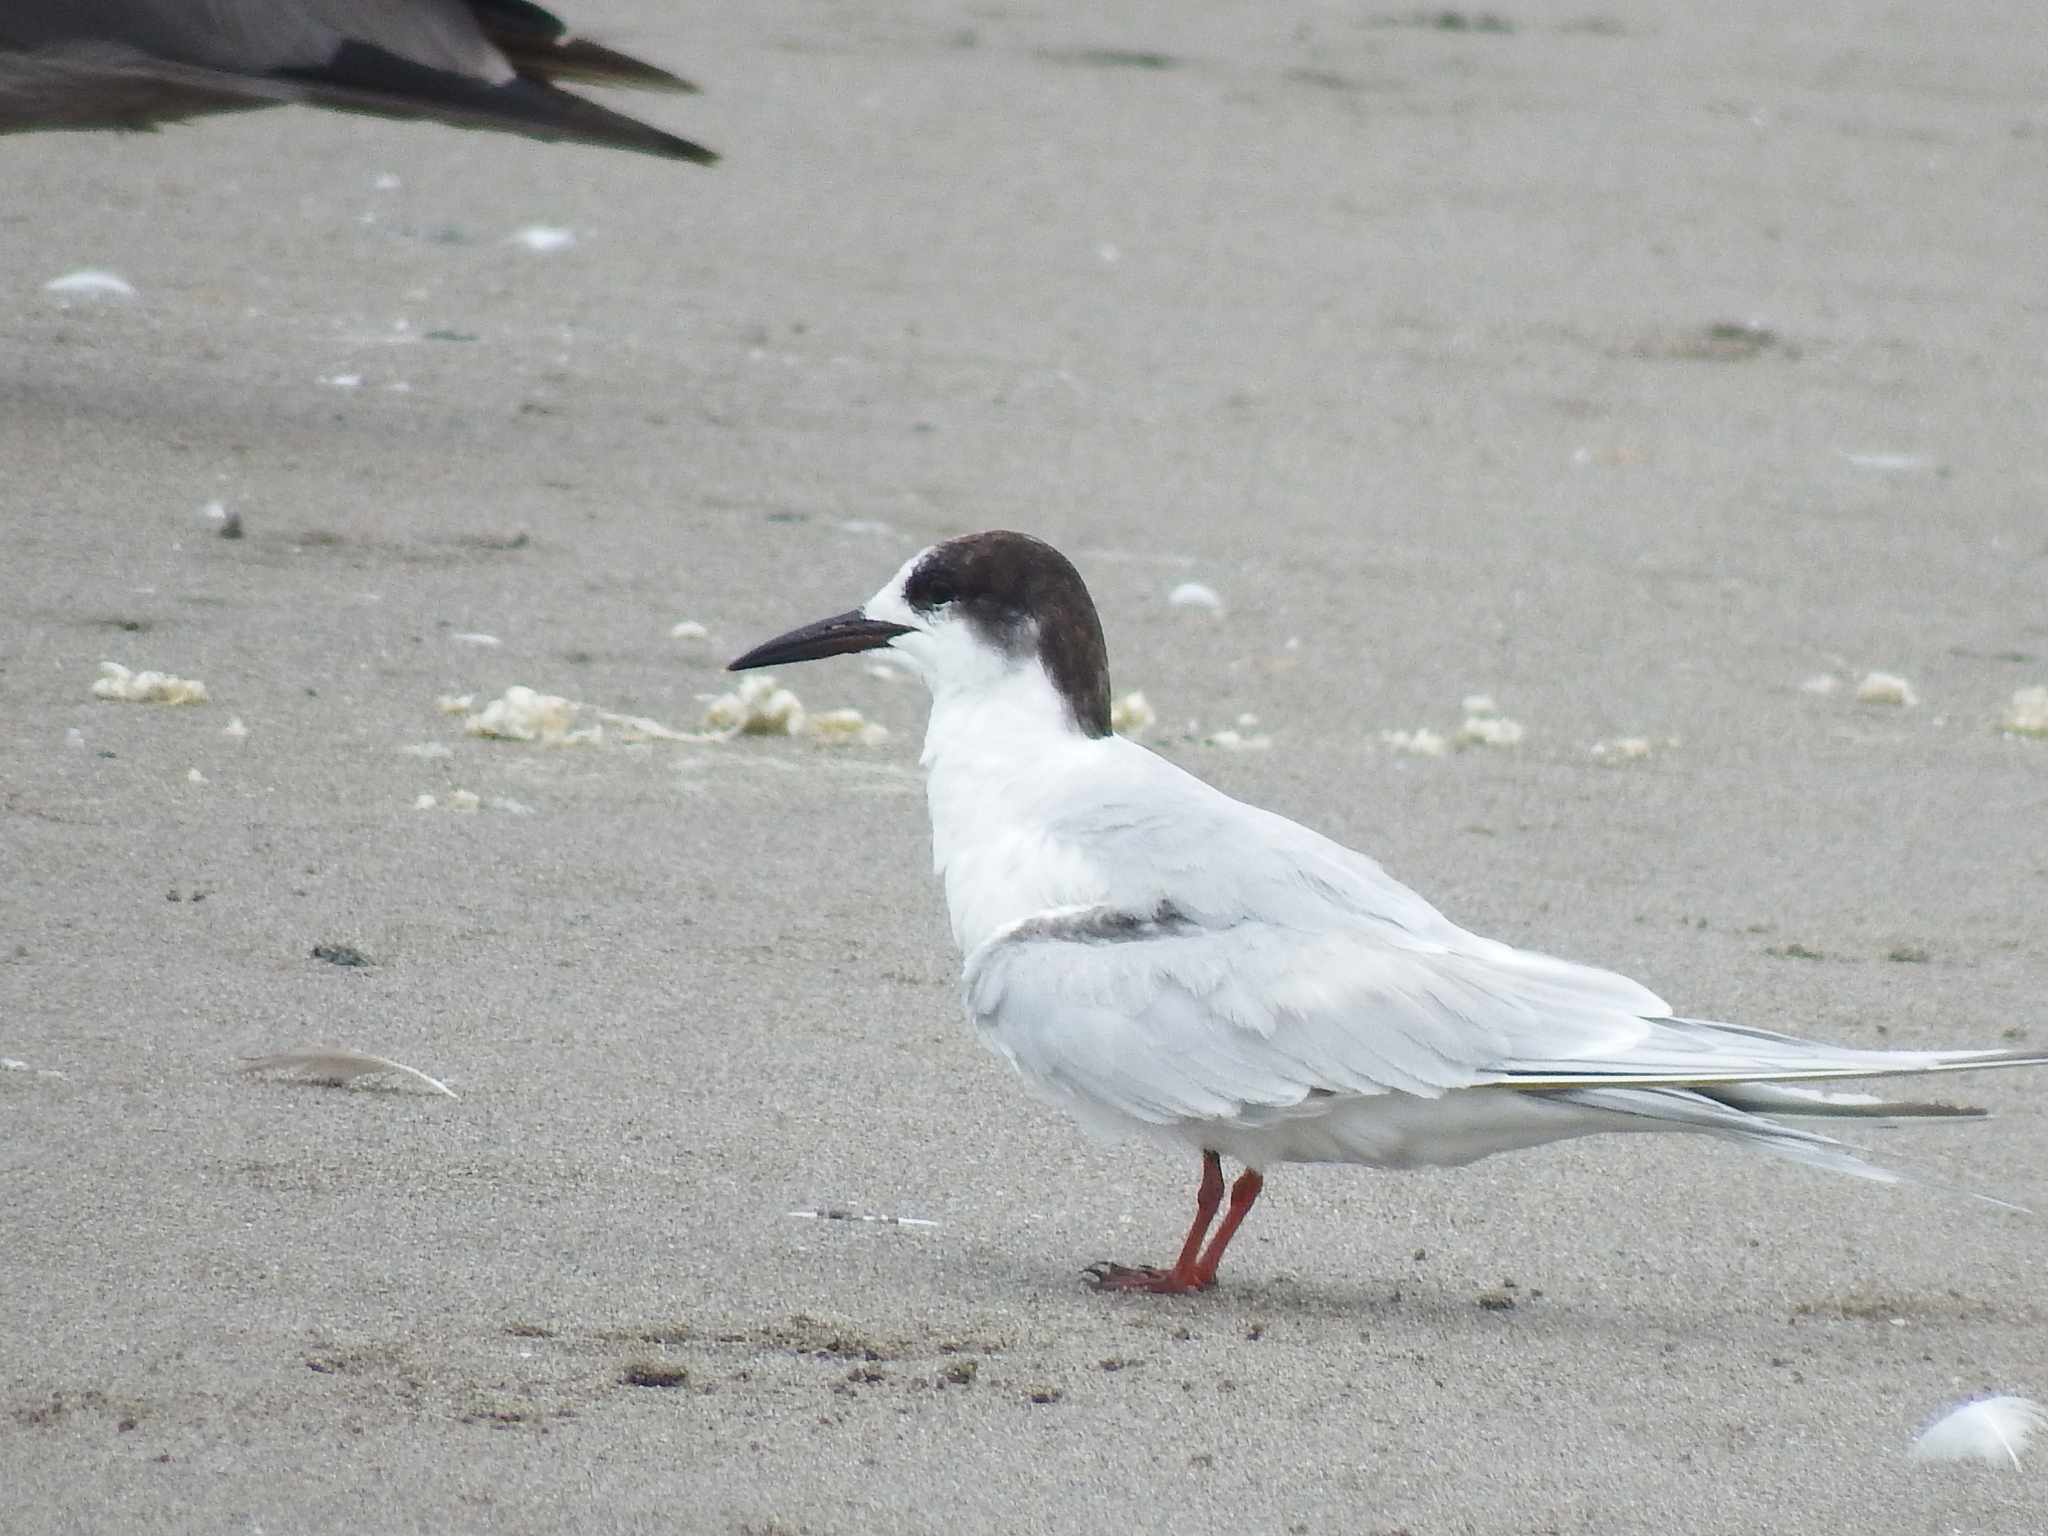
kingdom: Animalia
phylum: Chordata
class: Aves
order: Charadriiformes
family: Laridae
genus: Sterna
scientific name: Sterna hirundo
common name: Common tern
